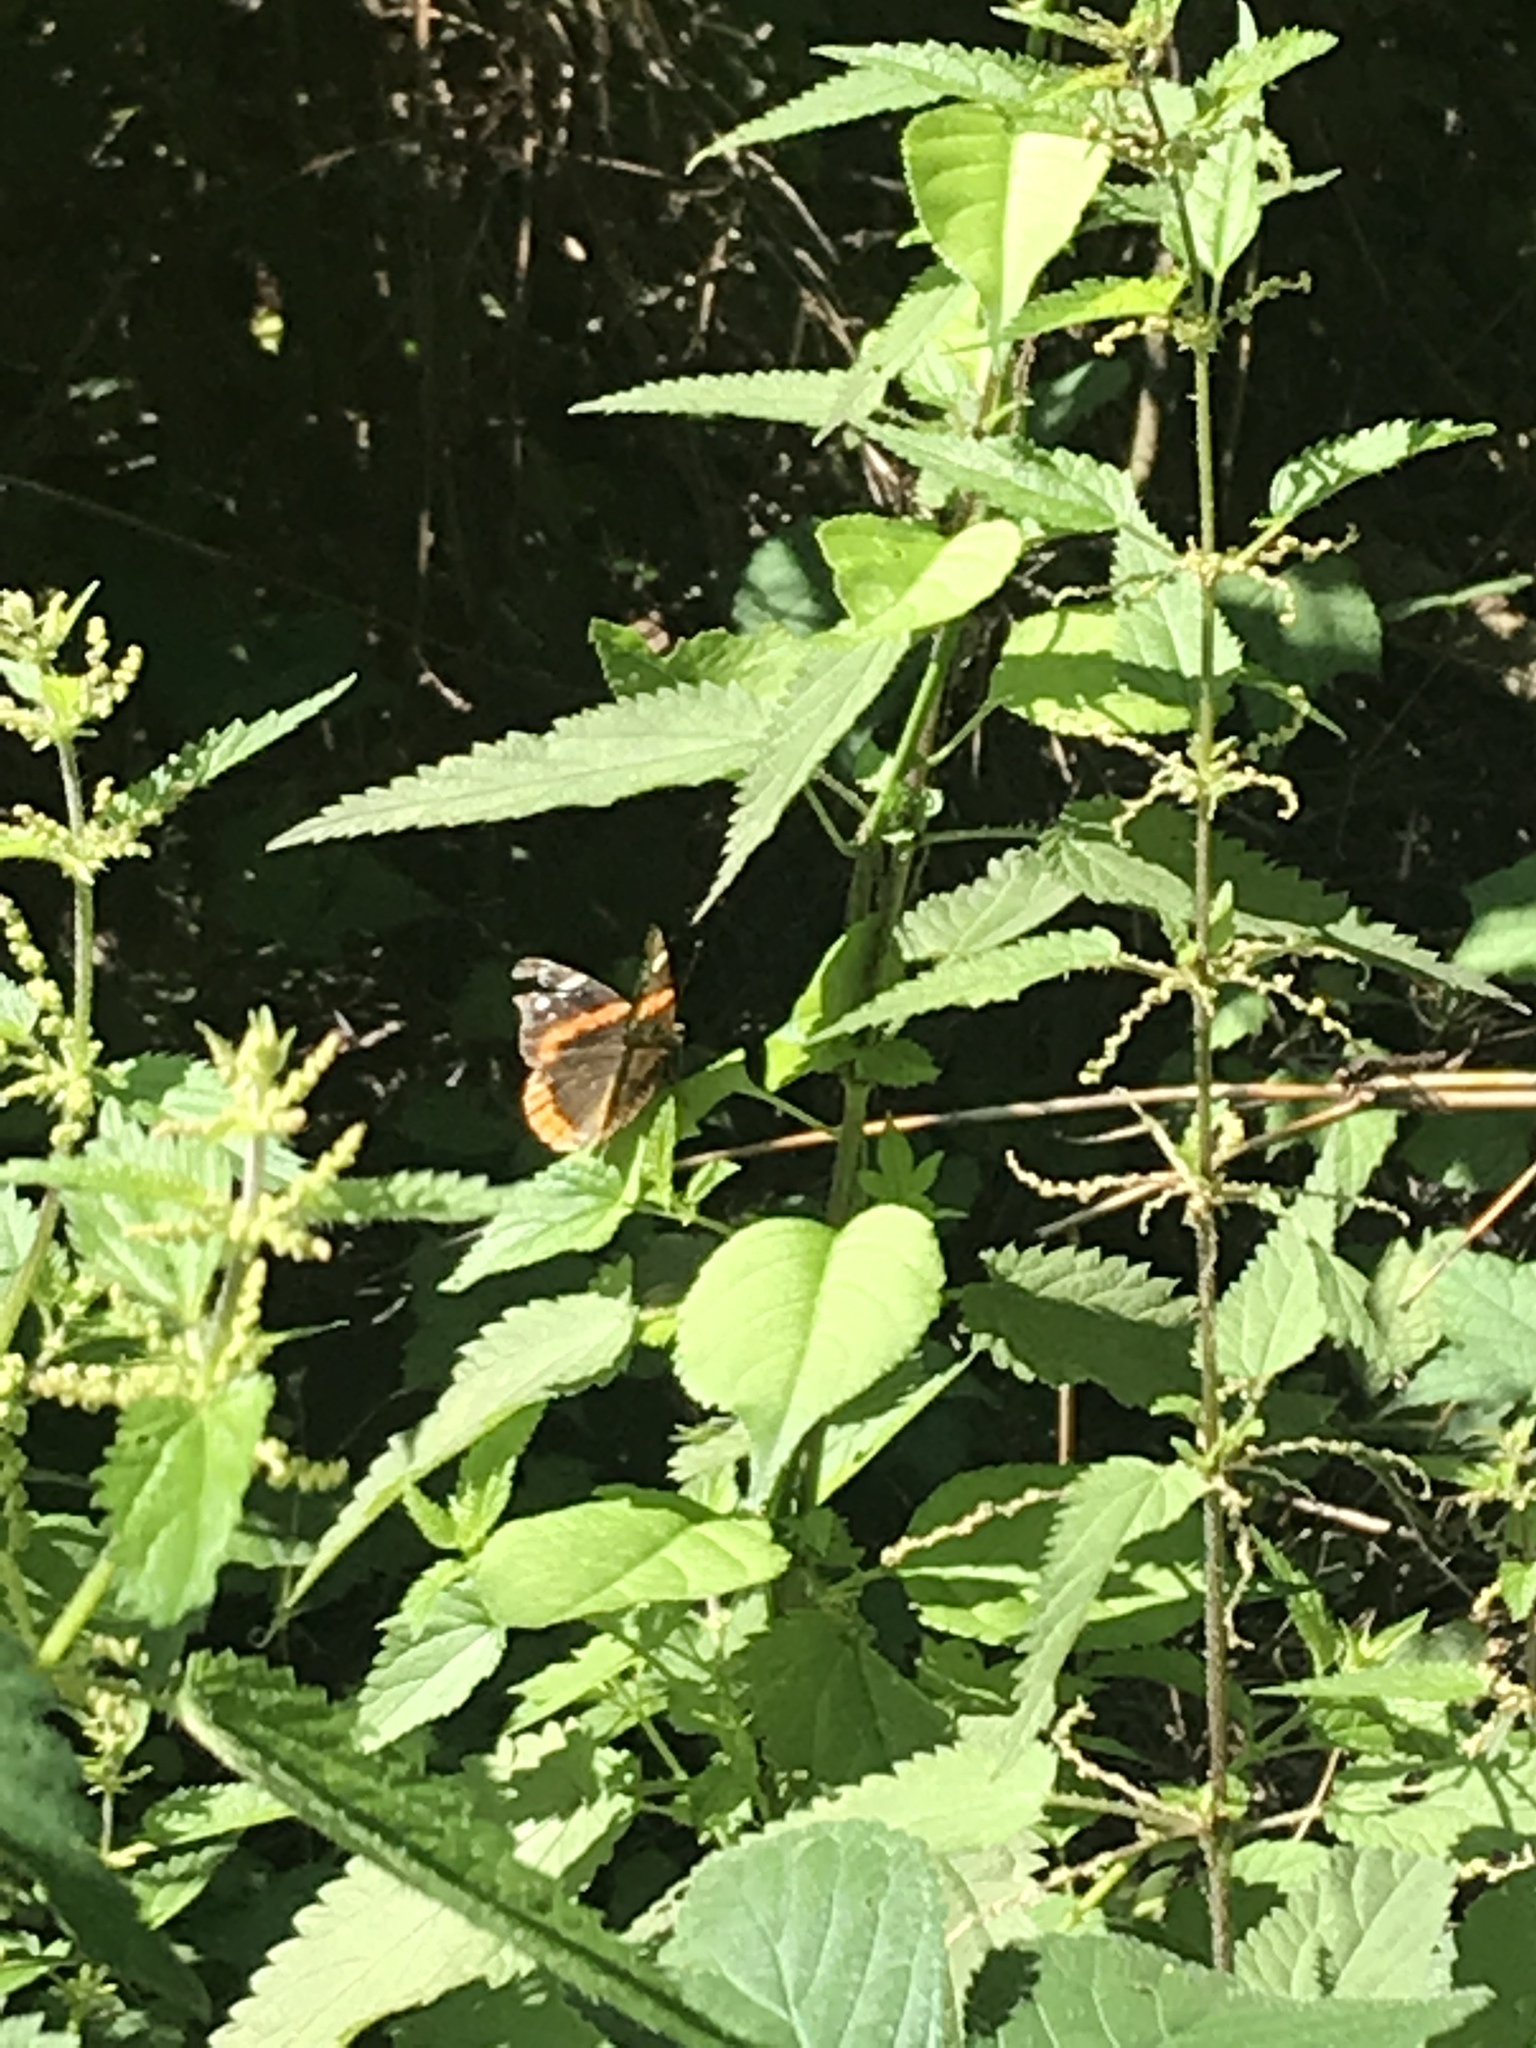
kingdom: Animalia
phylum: Arthropoda
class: Insecta
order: Lepidoptera
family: Nymphalidae
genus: Vanessa
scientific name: Vanessa atalanta
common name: Red admiral
